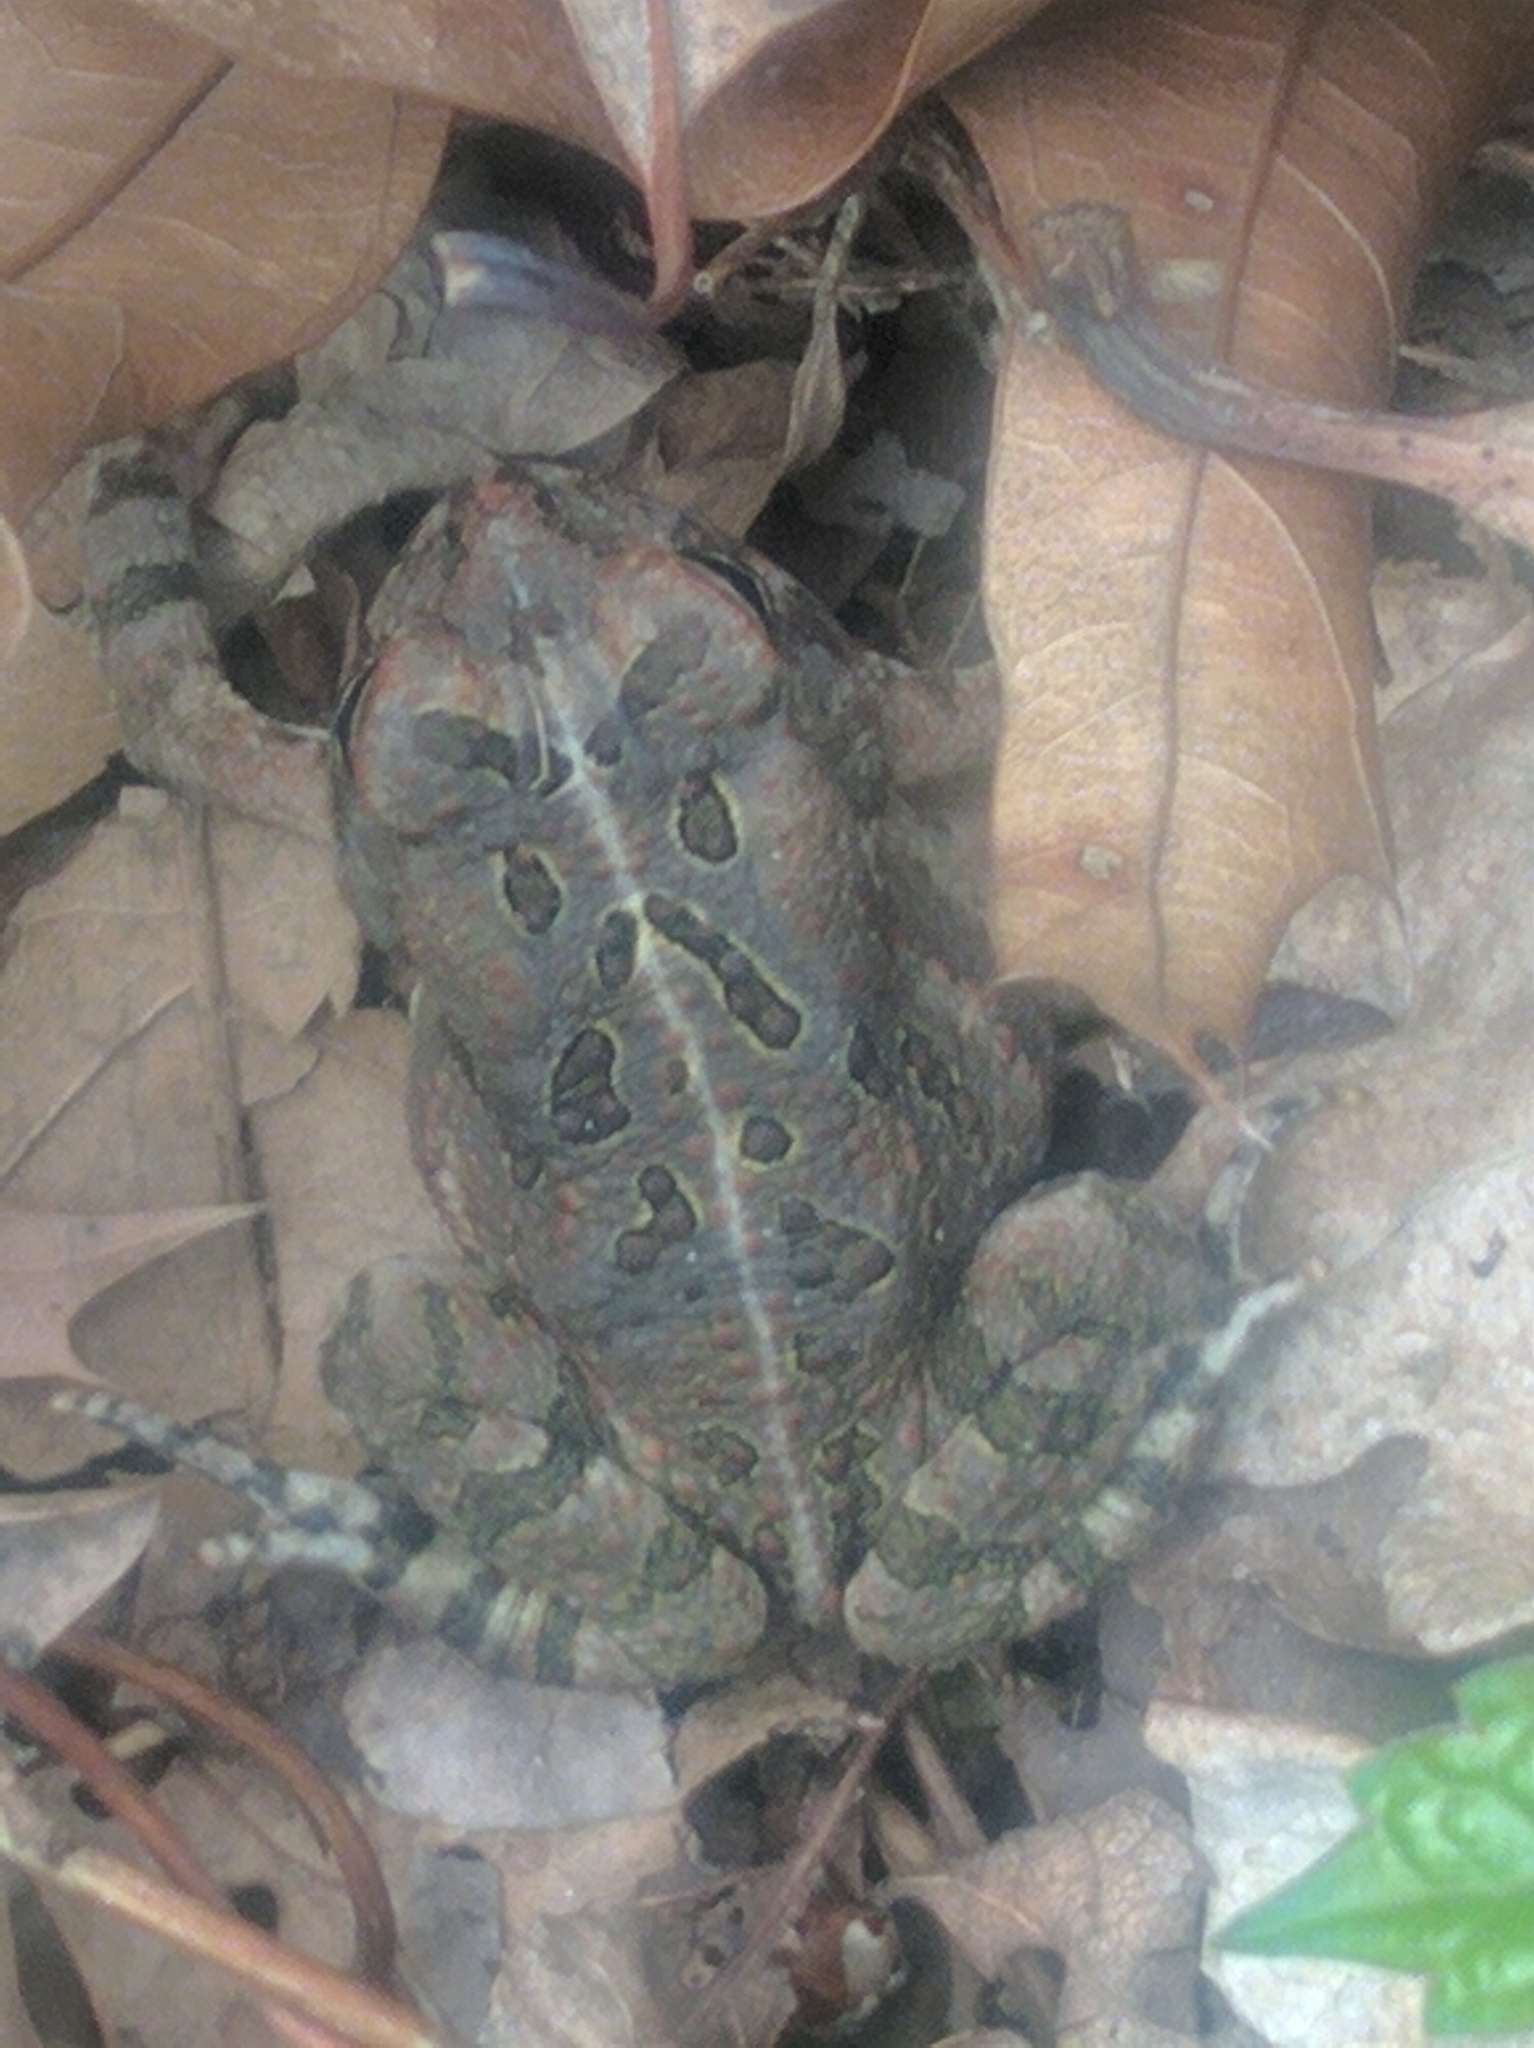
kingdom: Animalia
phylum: Chordata
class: Amphibia
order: Anura
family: Bufonidae
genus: Anaxyrus
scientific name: Anaxyrus fowleri
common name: Fowler's toad
